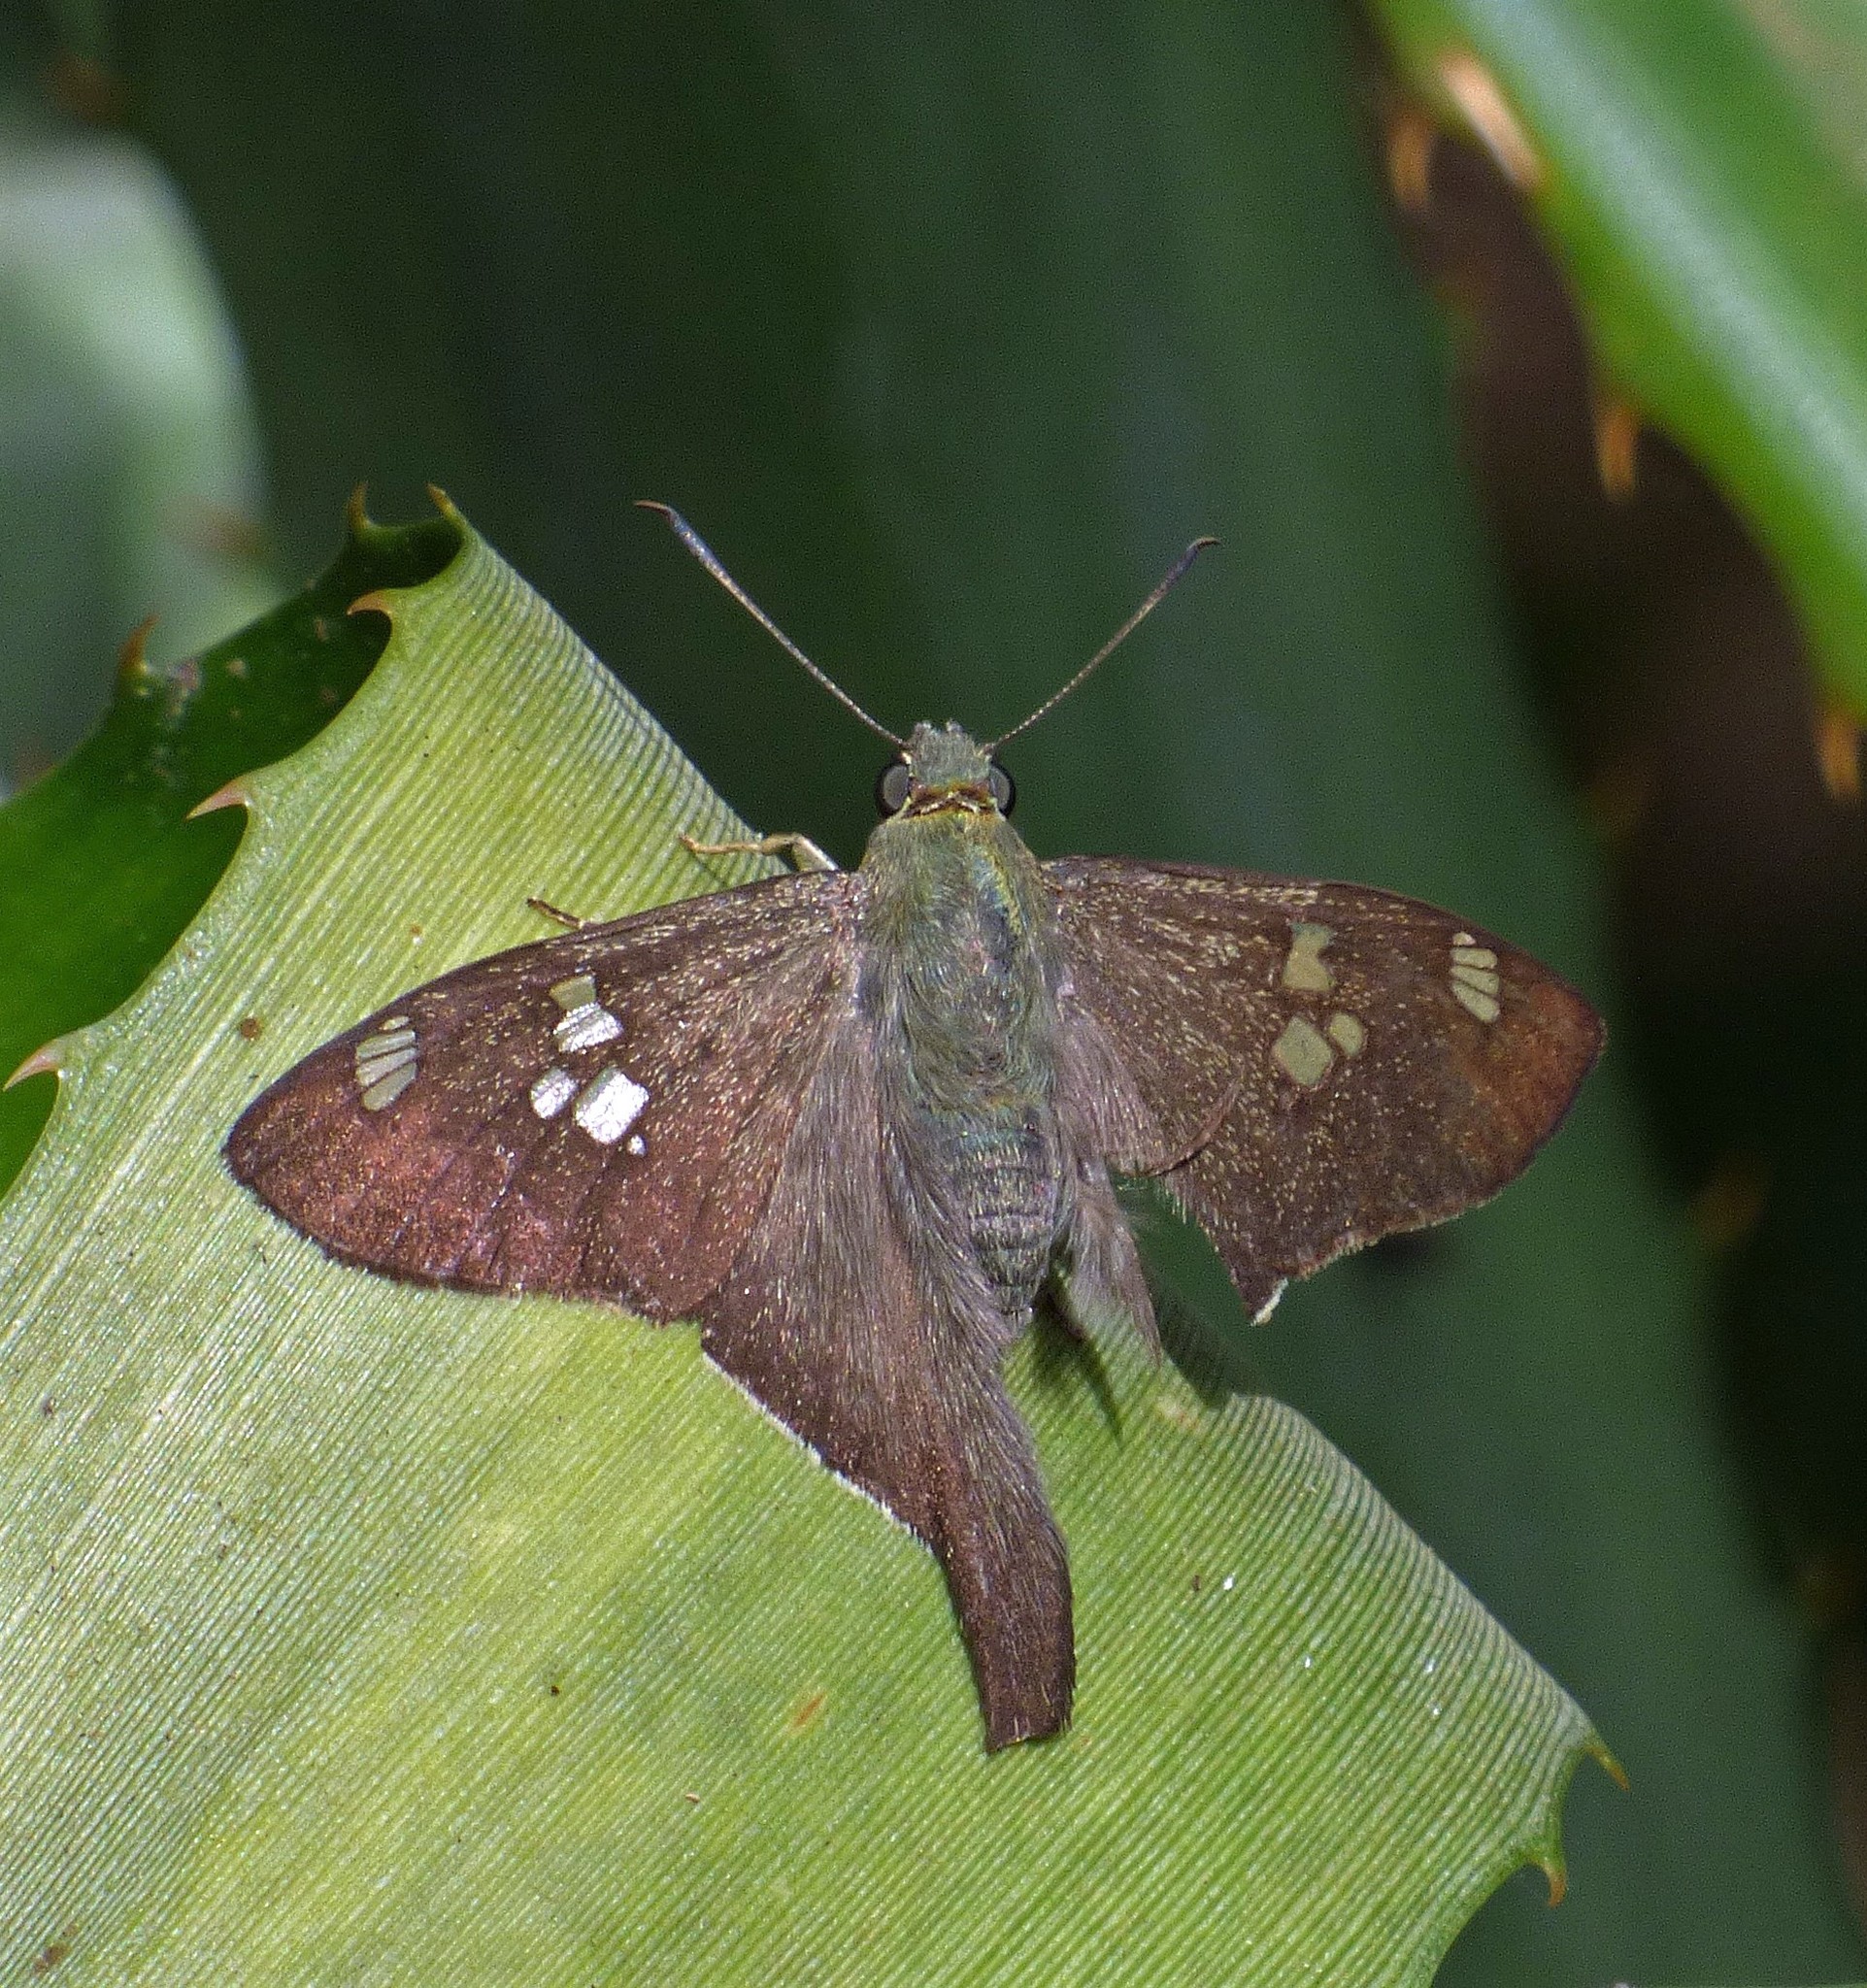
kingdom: Animalia
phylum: Arthropoda
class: Insecta
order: Lepidoptera
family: Hesperiidae
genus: Polythrix
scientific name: Polythrix caunus
